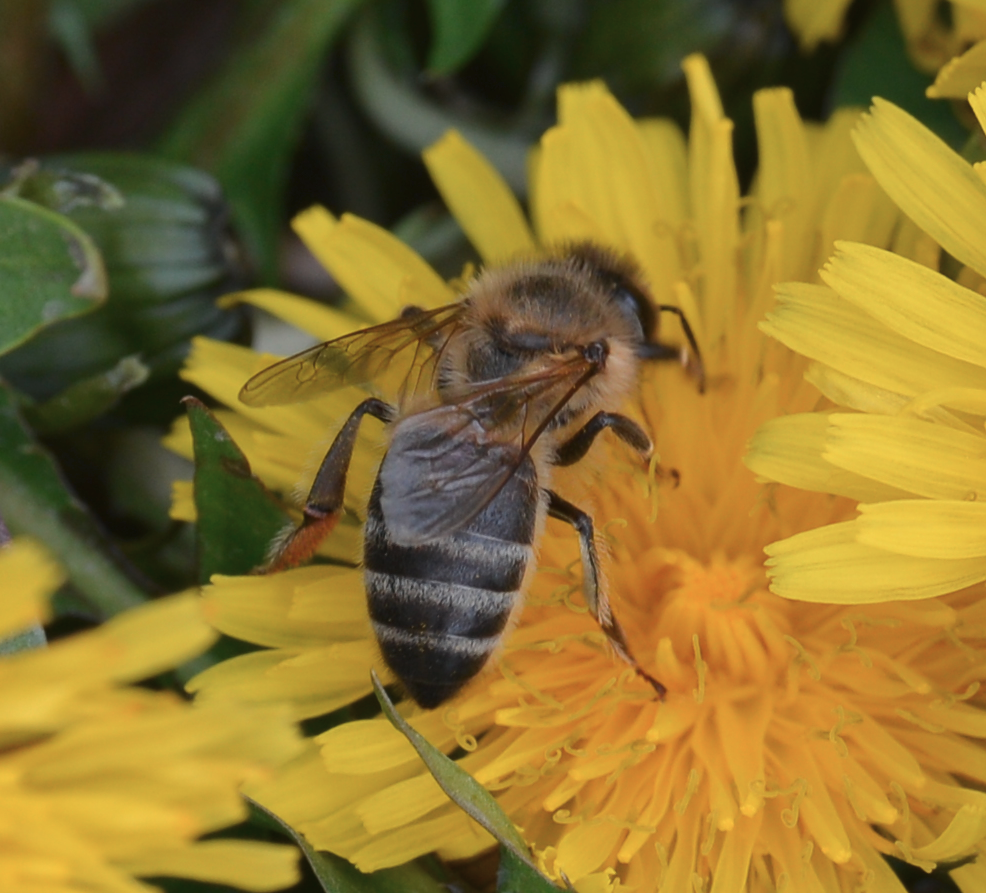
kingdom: Animalia
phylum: Arthropoda
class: Insecta
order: Hymenoptera
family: Apidae
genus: Apis
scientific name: Apis mellifera
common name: Honey bee
